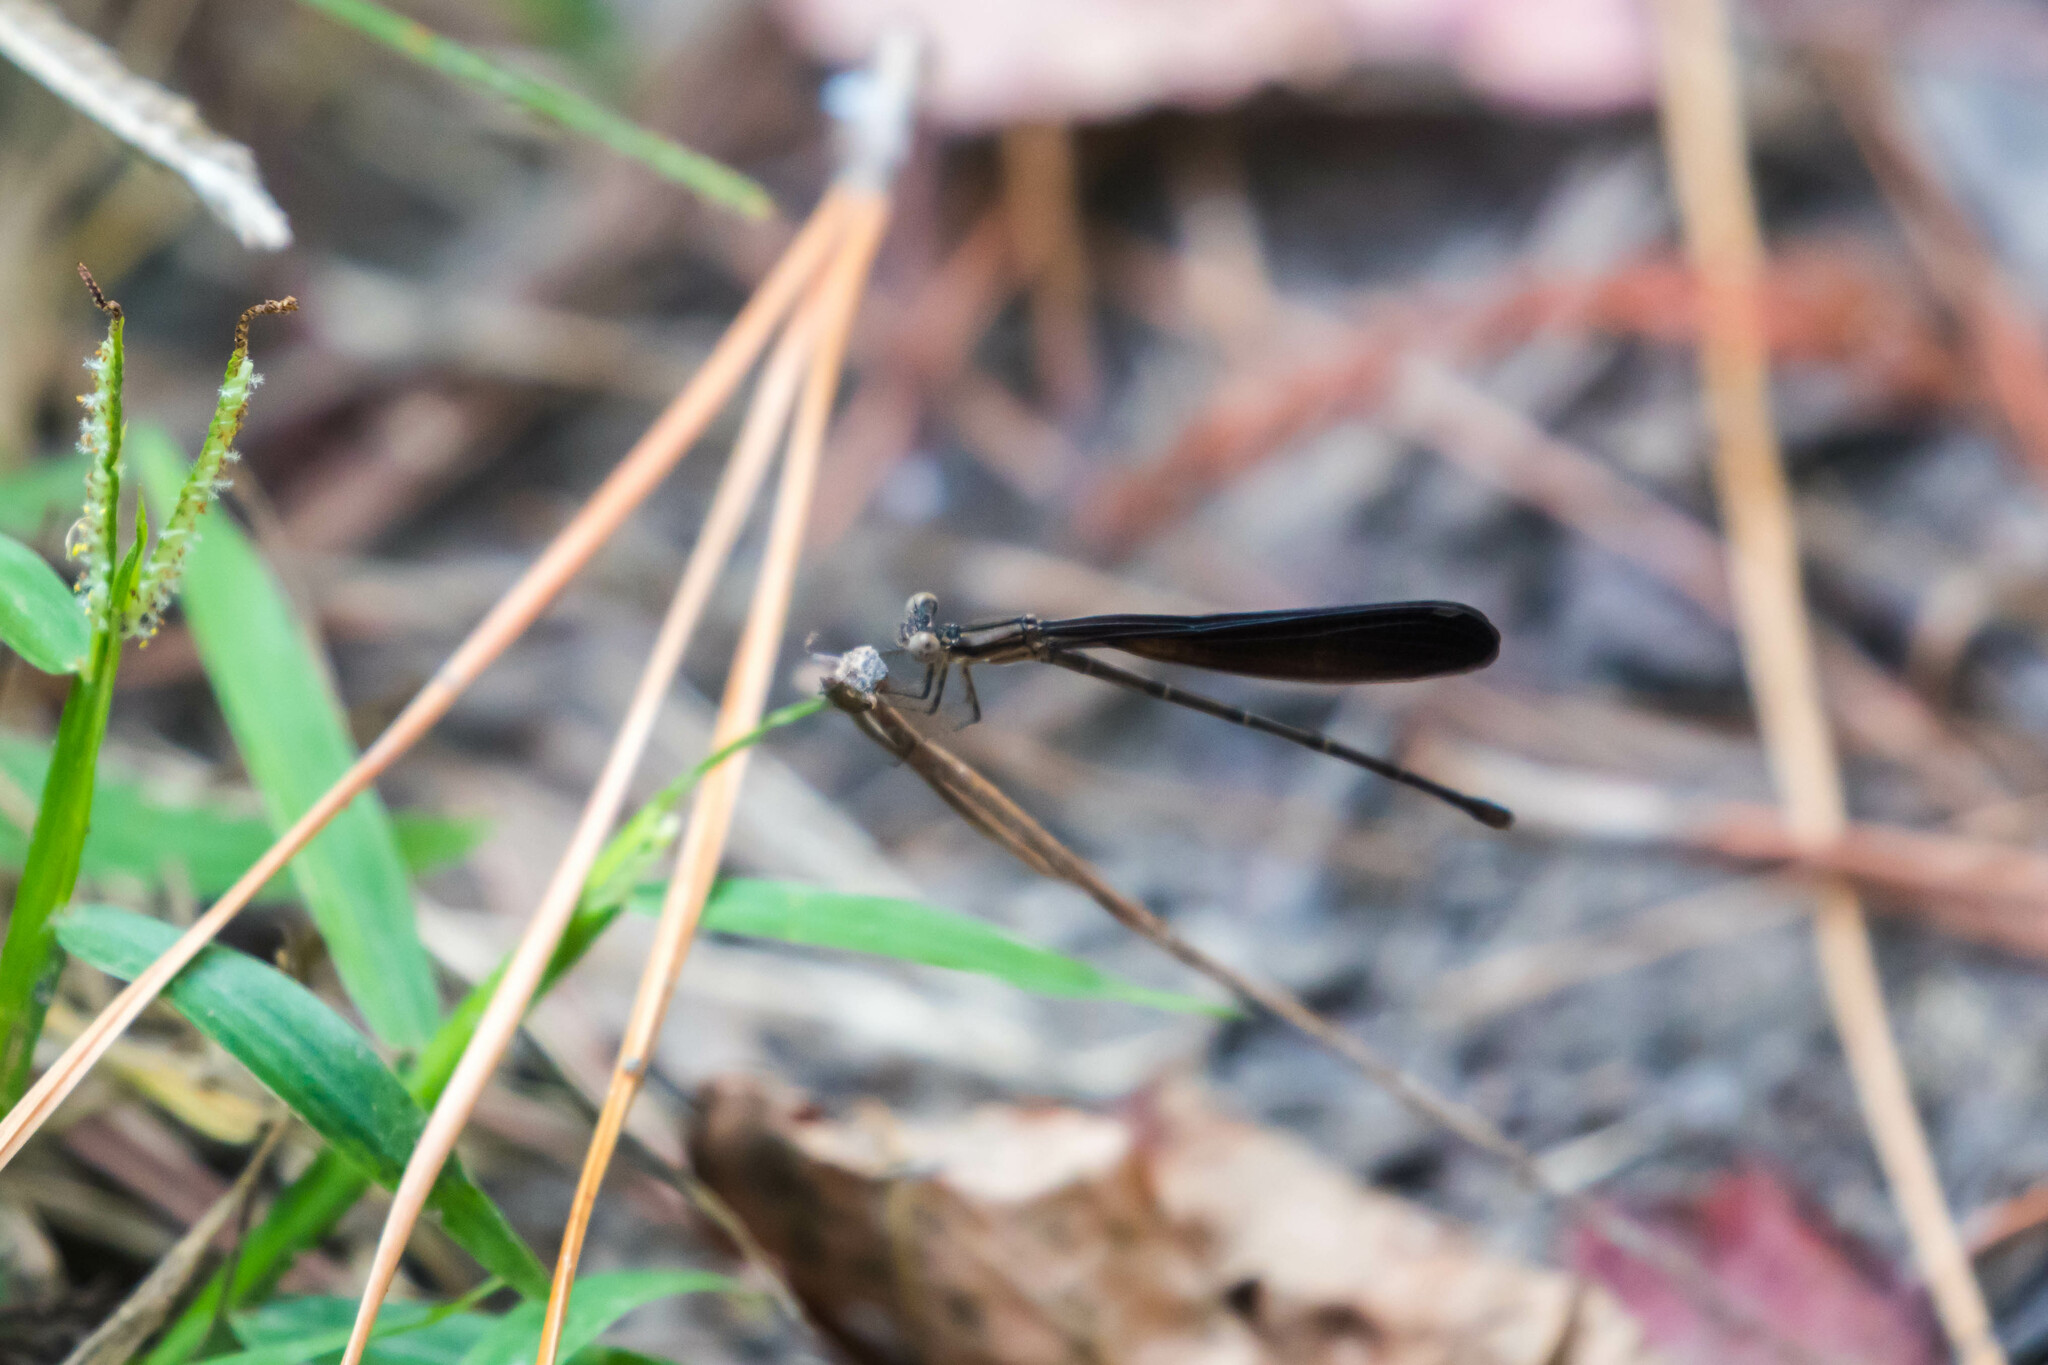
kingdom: Animalia
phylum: Arthropoda
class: Insecta
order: Odonata
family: Coenagrionidae
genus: Argia
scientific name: Argia fumipennis
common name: Variable dancer
